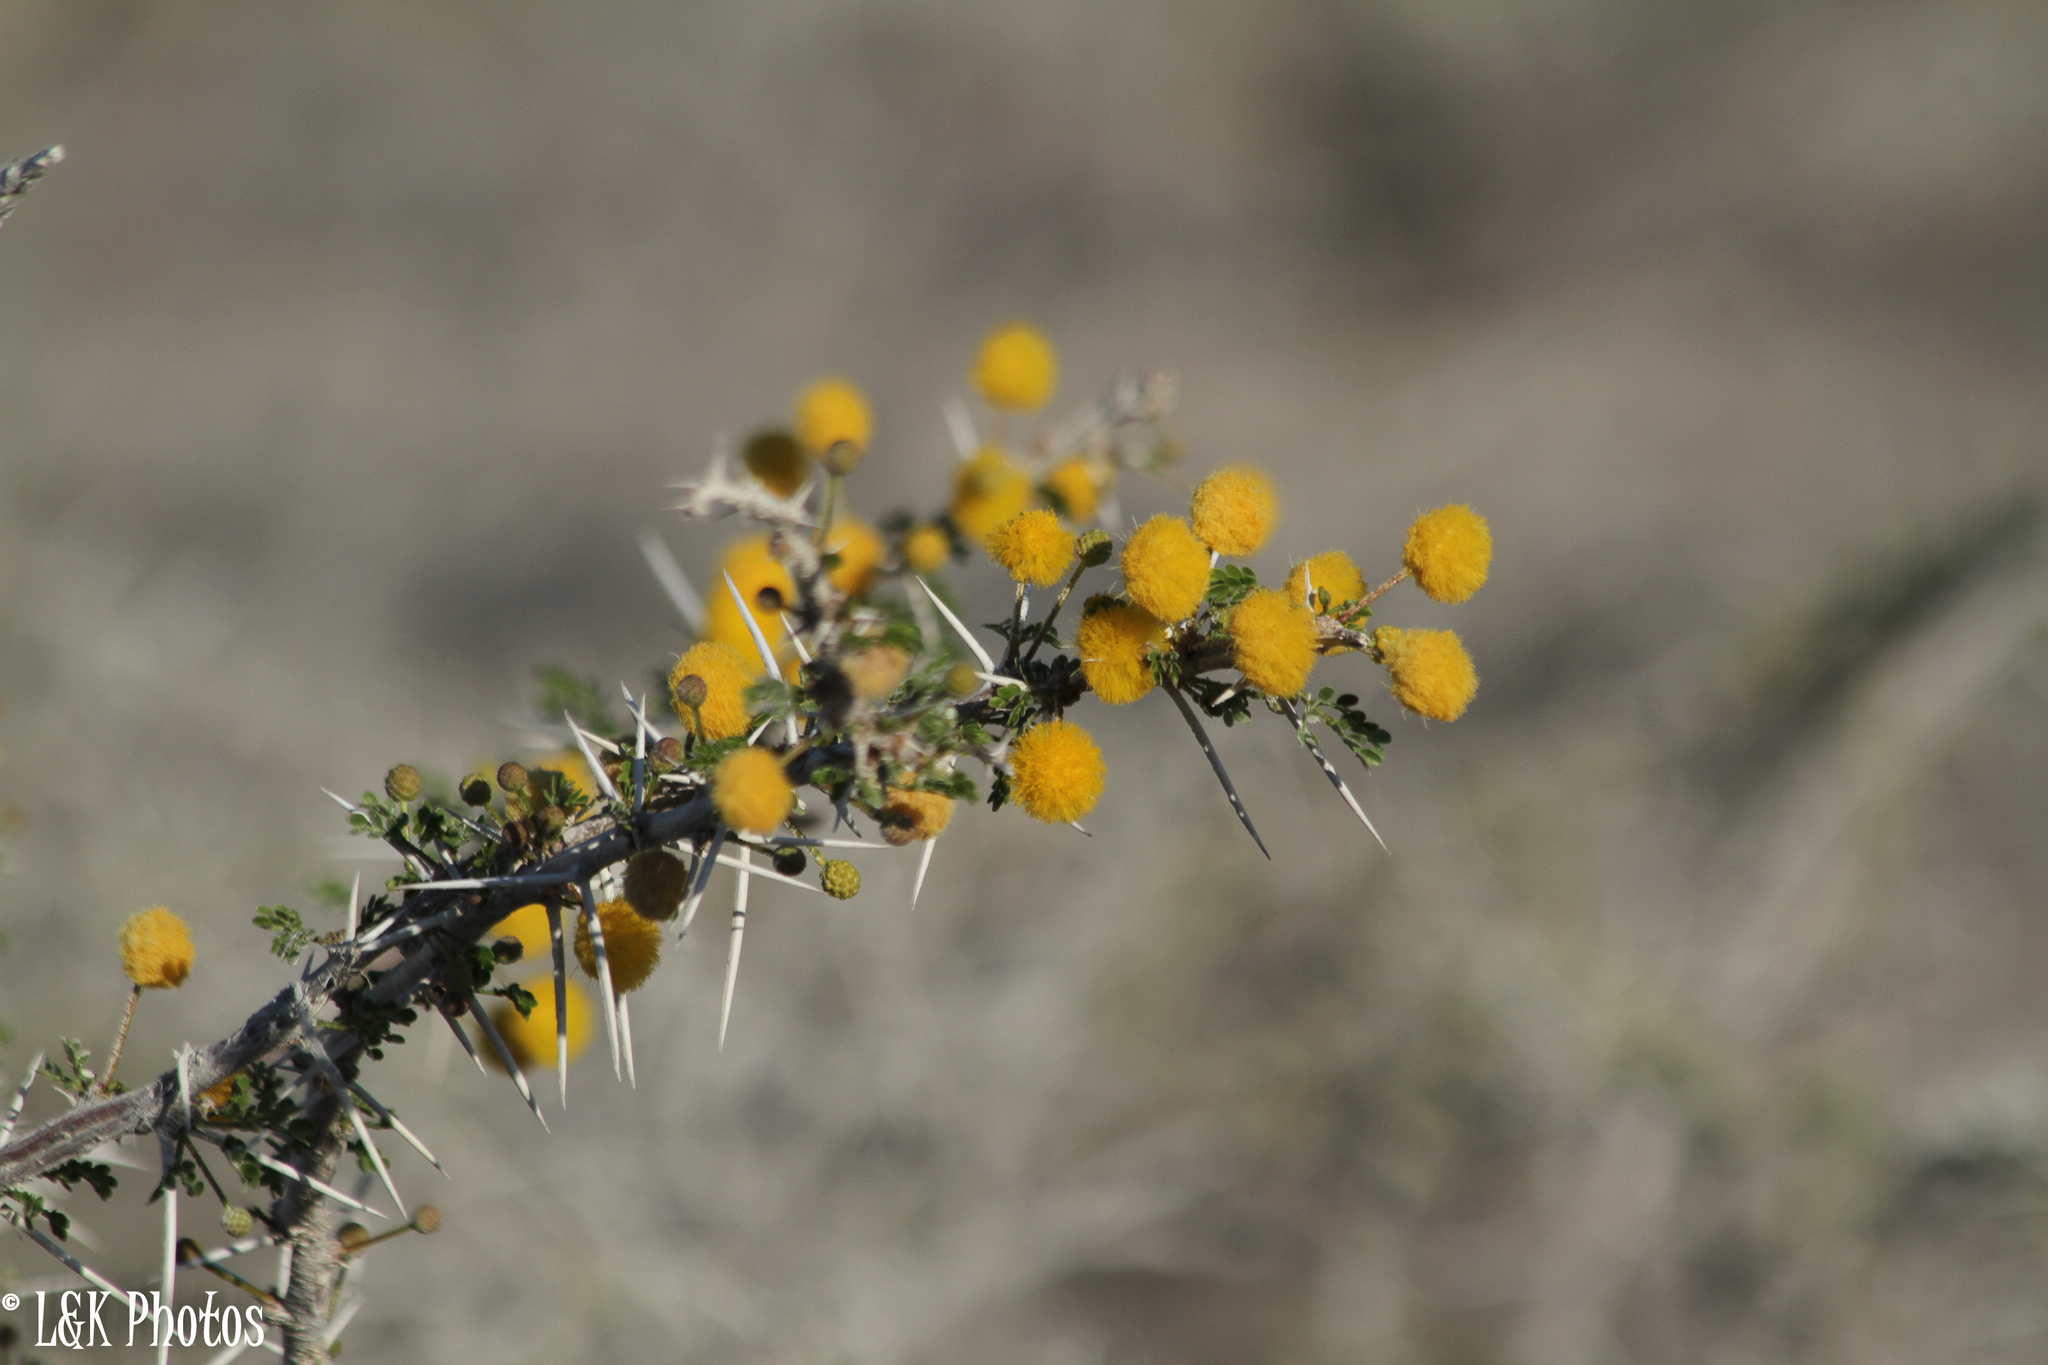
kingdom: Plantae
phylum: Tracheophyta
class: Magnoliopsida
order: Fabales
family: Fabaceae
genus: Vachellia
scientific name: Vachellia nebrownii
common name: Water acacia
